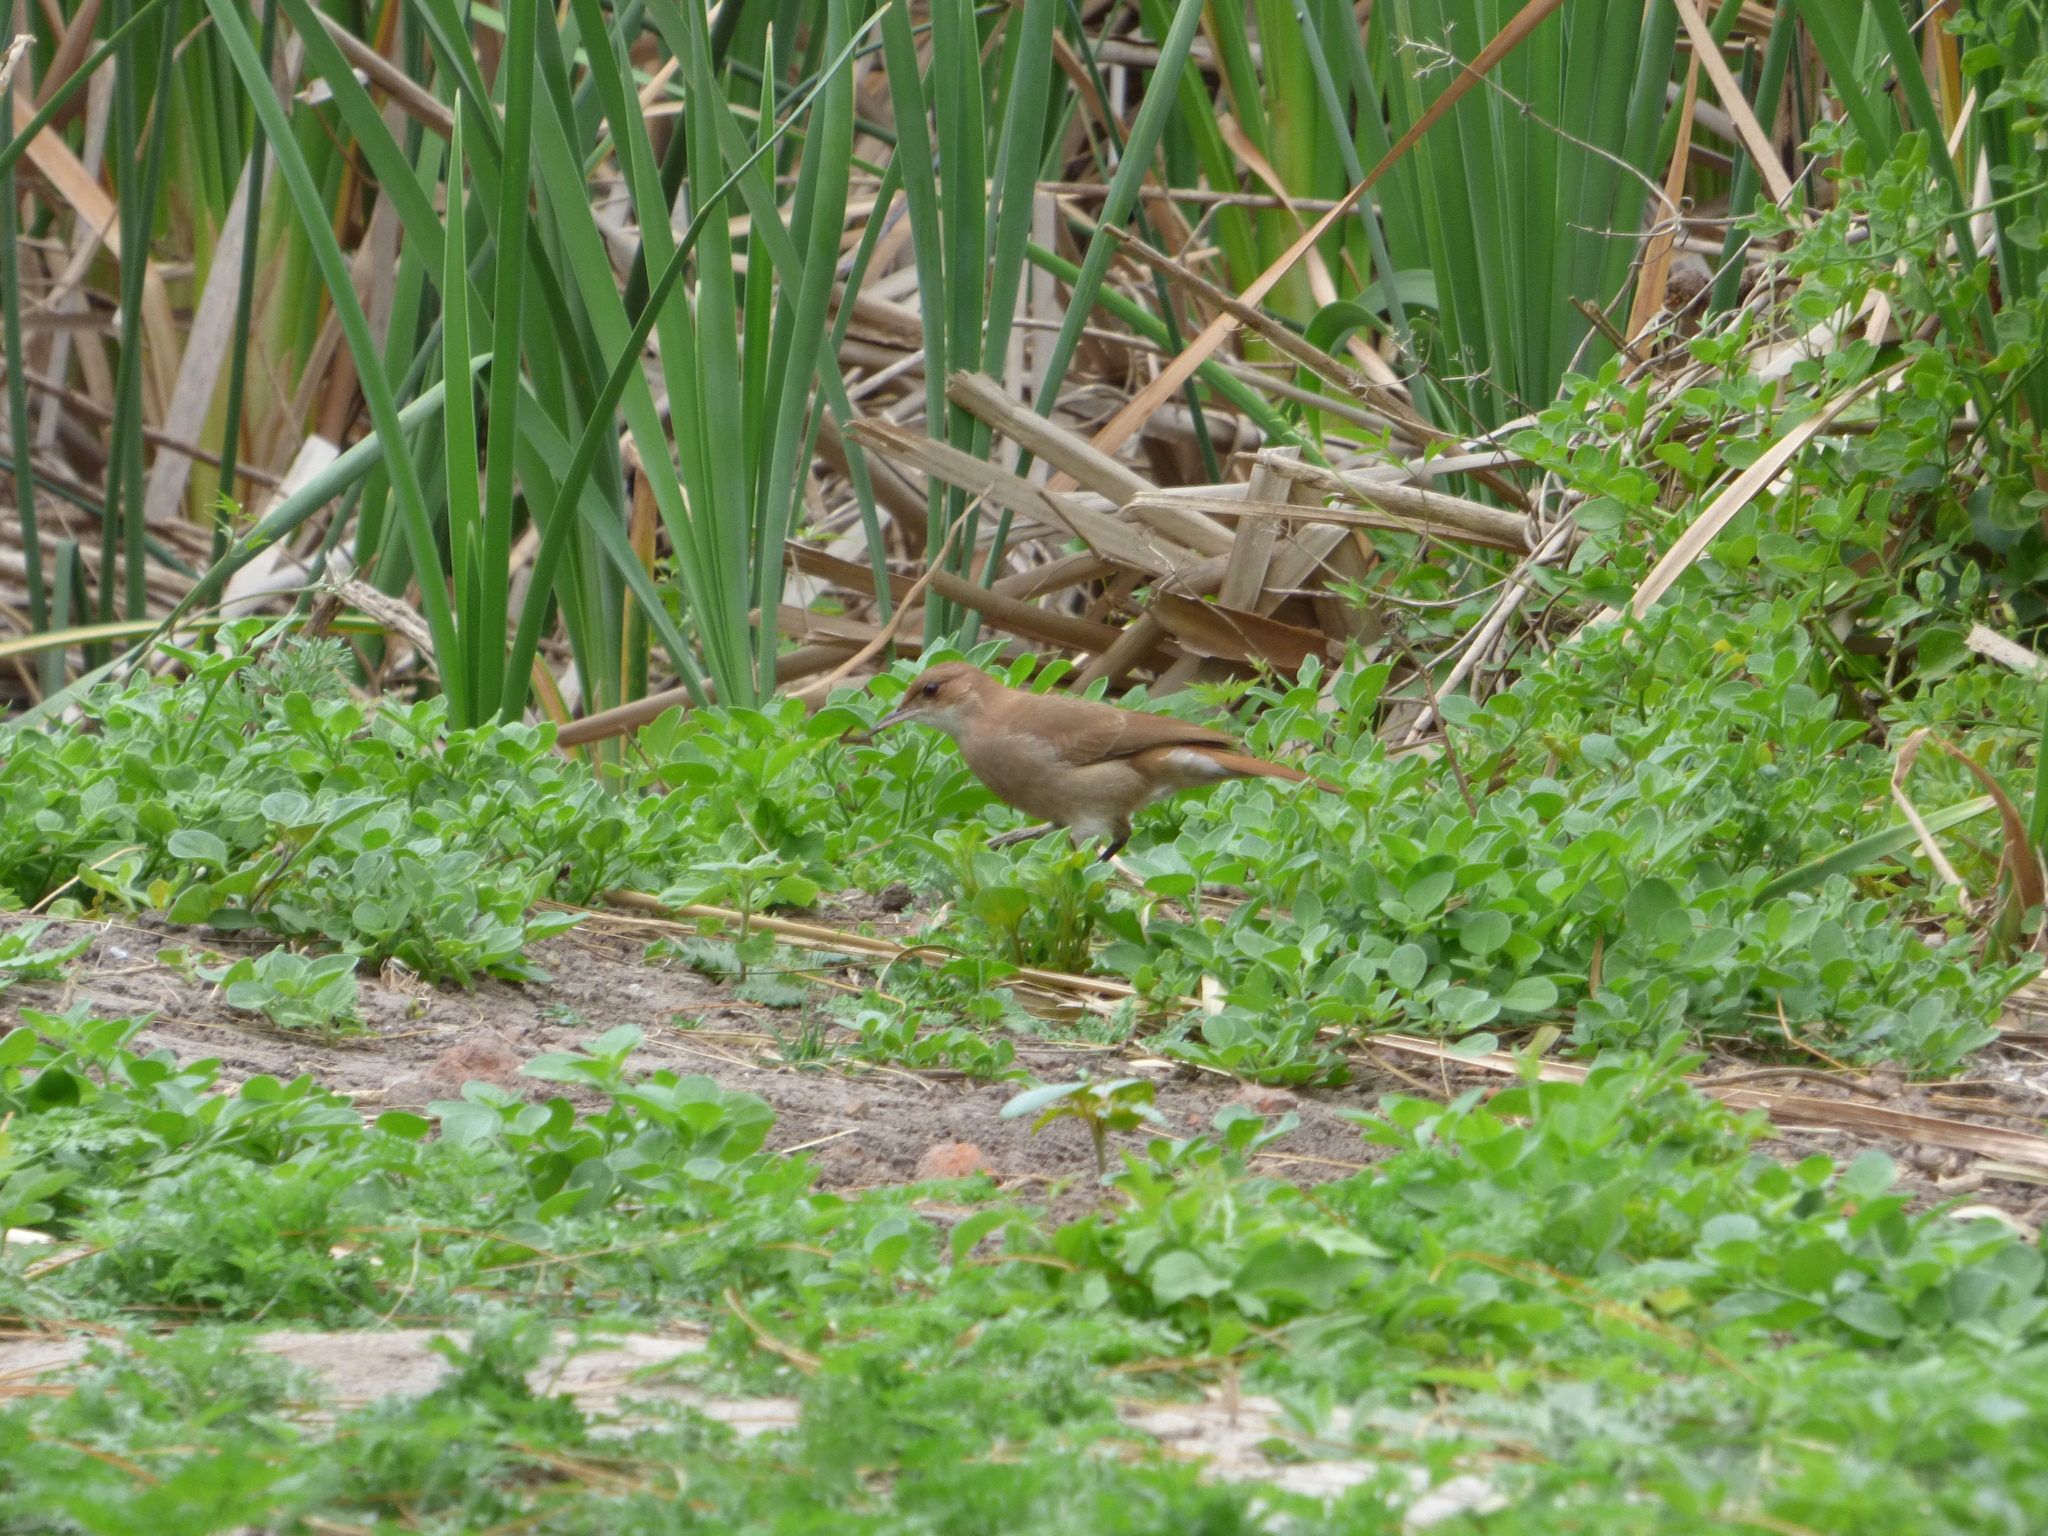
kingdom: Animalia
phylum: Chordata
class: Aves
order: Passeriformes
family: Furnariidae
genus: Furnarius
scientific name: Furnarius rufus
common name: Rufous hornero
